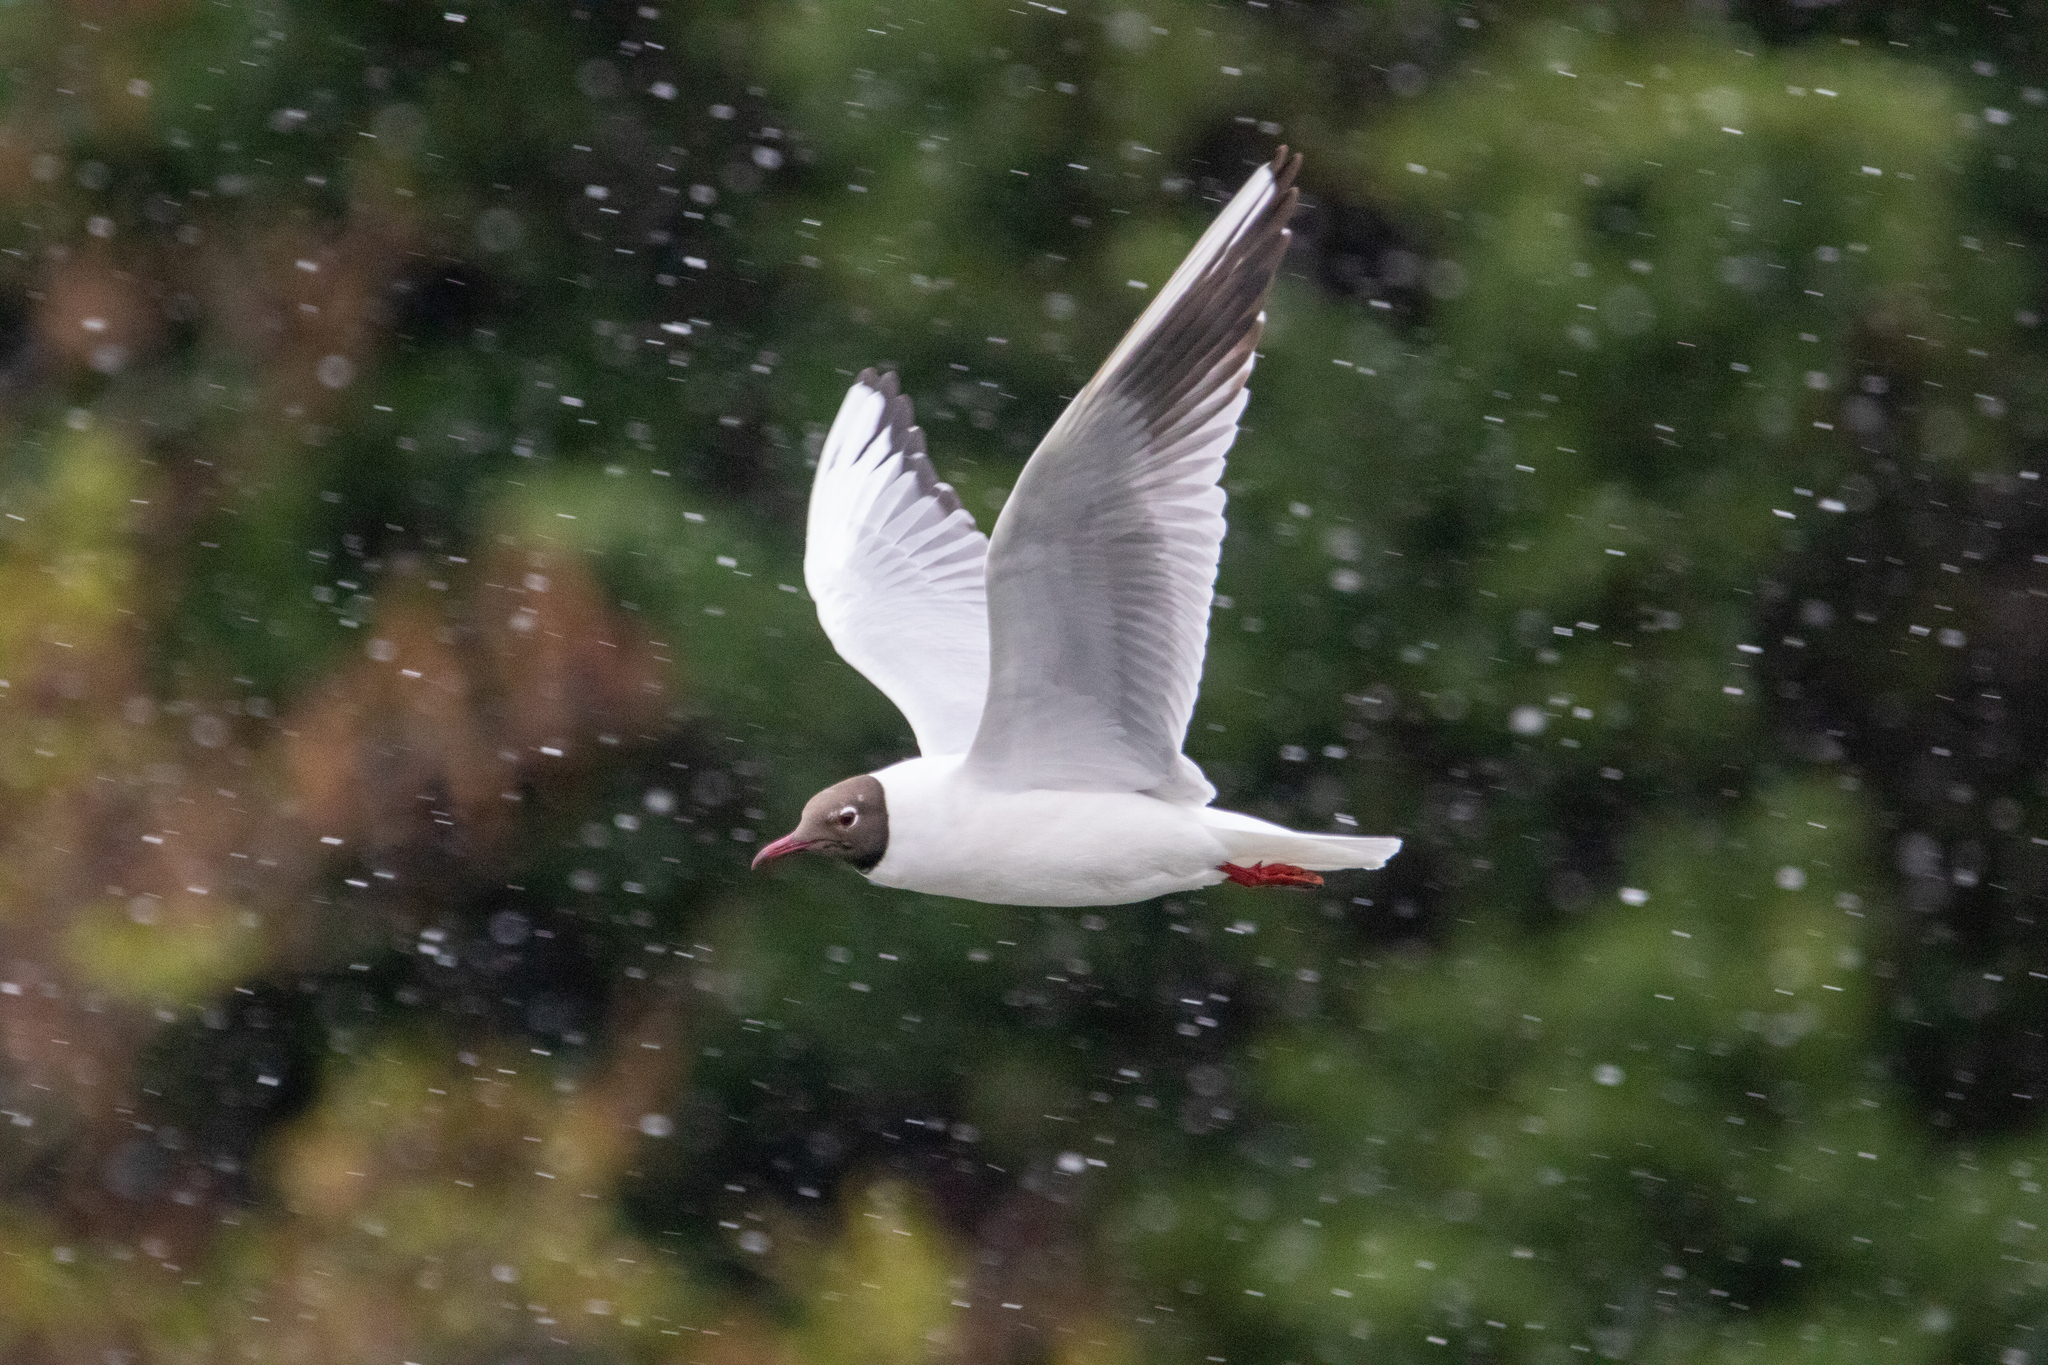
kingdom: Animalia
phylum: Chordata
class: Aves
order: Charadriiformes
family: Laridae
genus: Chroicocephalus
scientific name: Chroicocephalus ridibundus
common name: Black-headed gull
